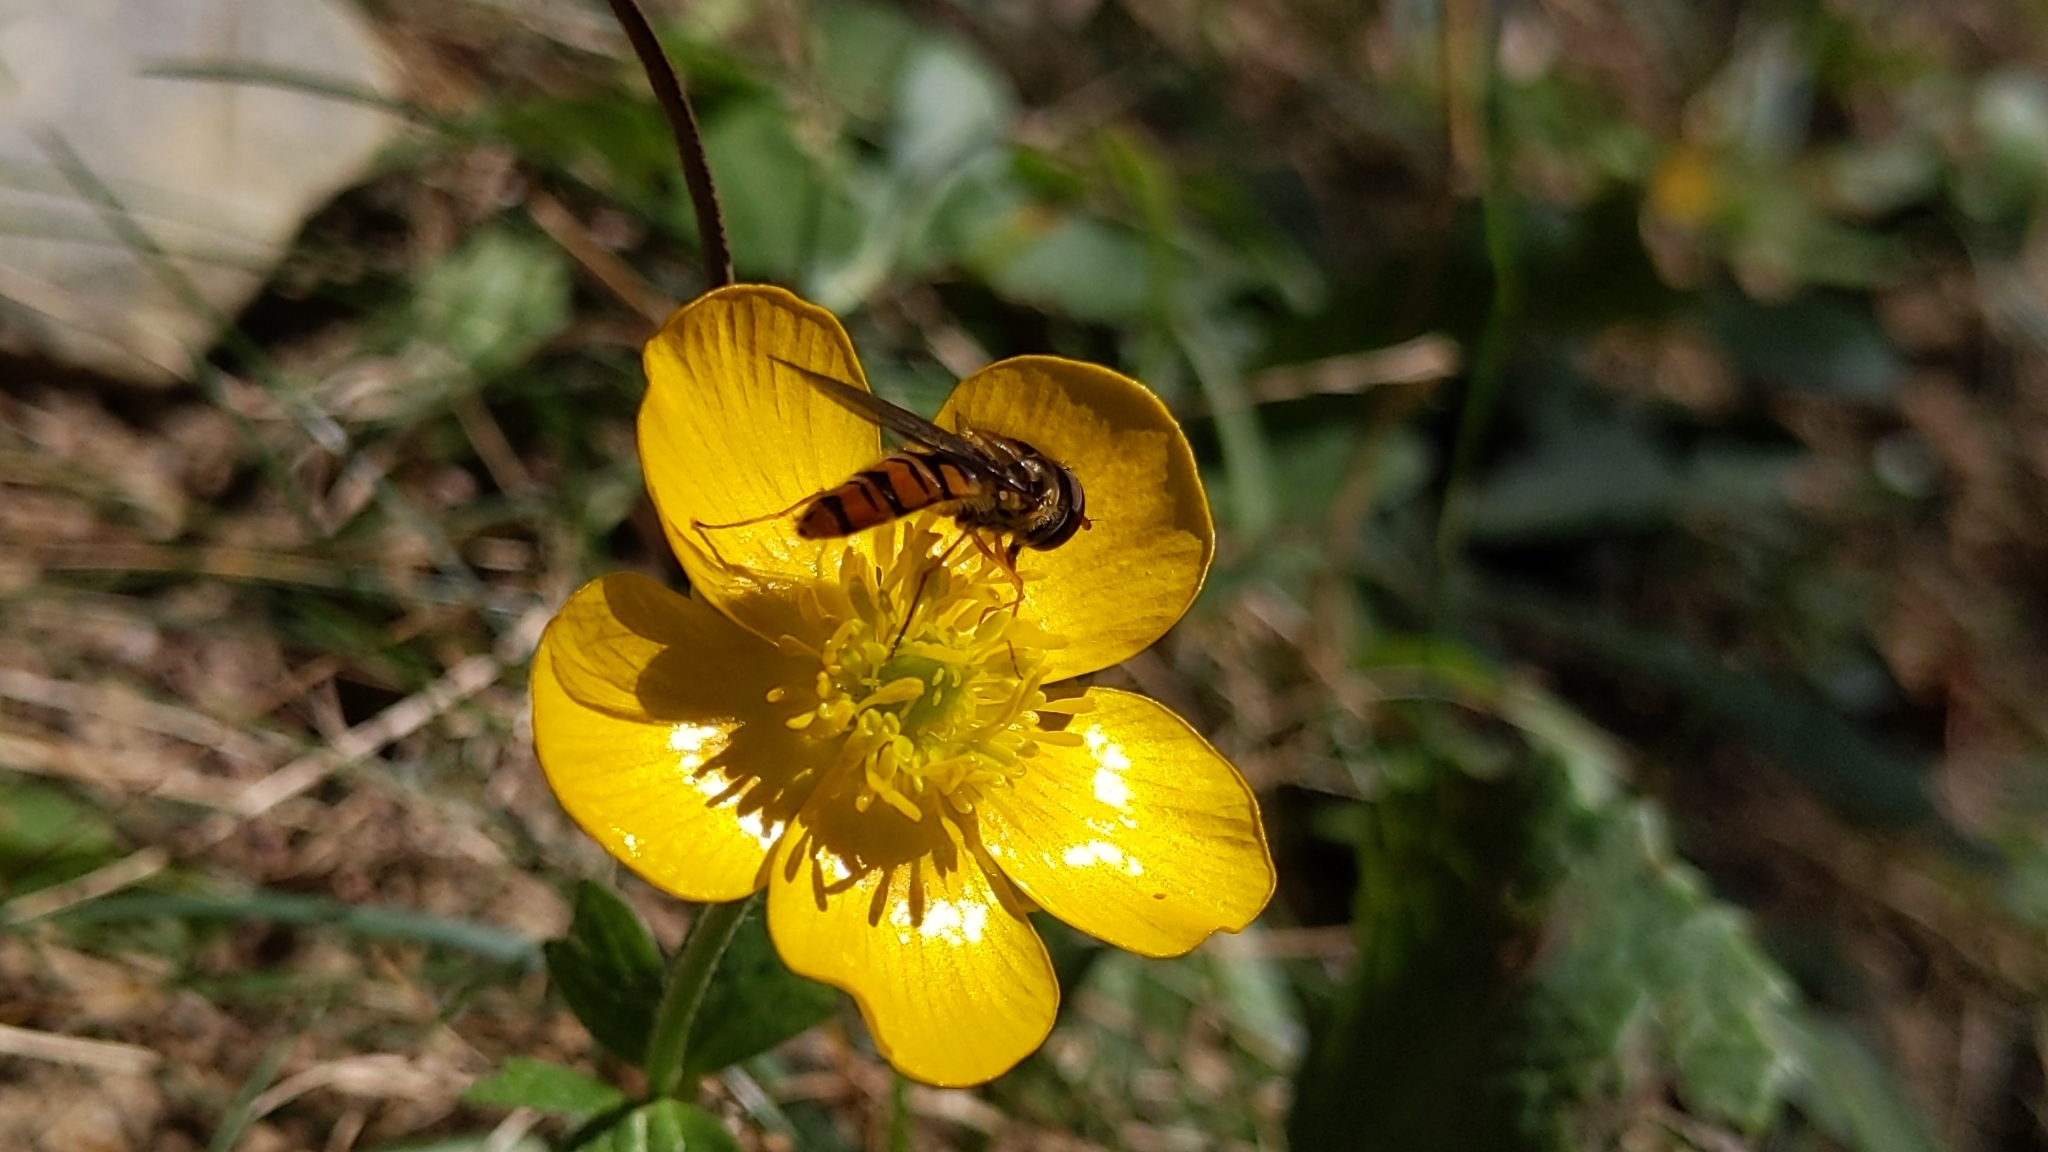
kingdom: Animalia
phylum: Arthropoda
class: Insecta
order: Diptera
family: Syrphidae
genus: Episyrphus
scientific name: Episyrphus balteatus
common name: Marmalade hoverfly
